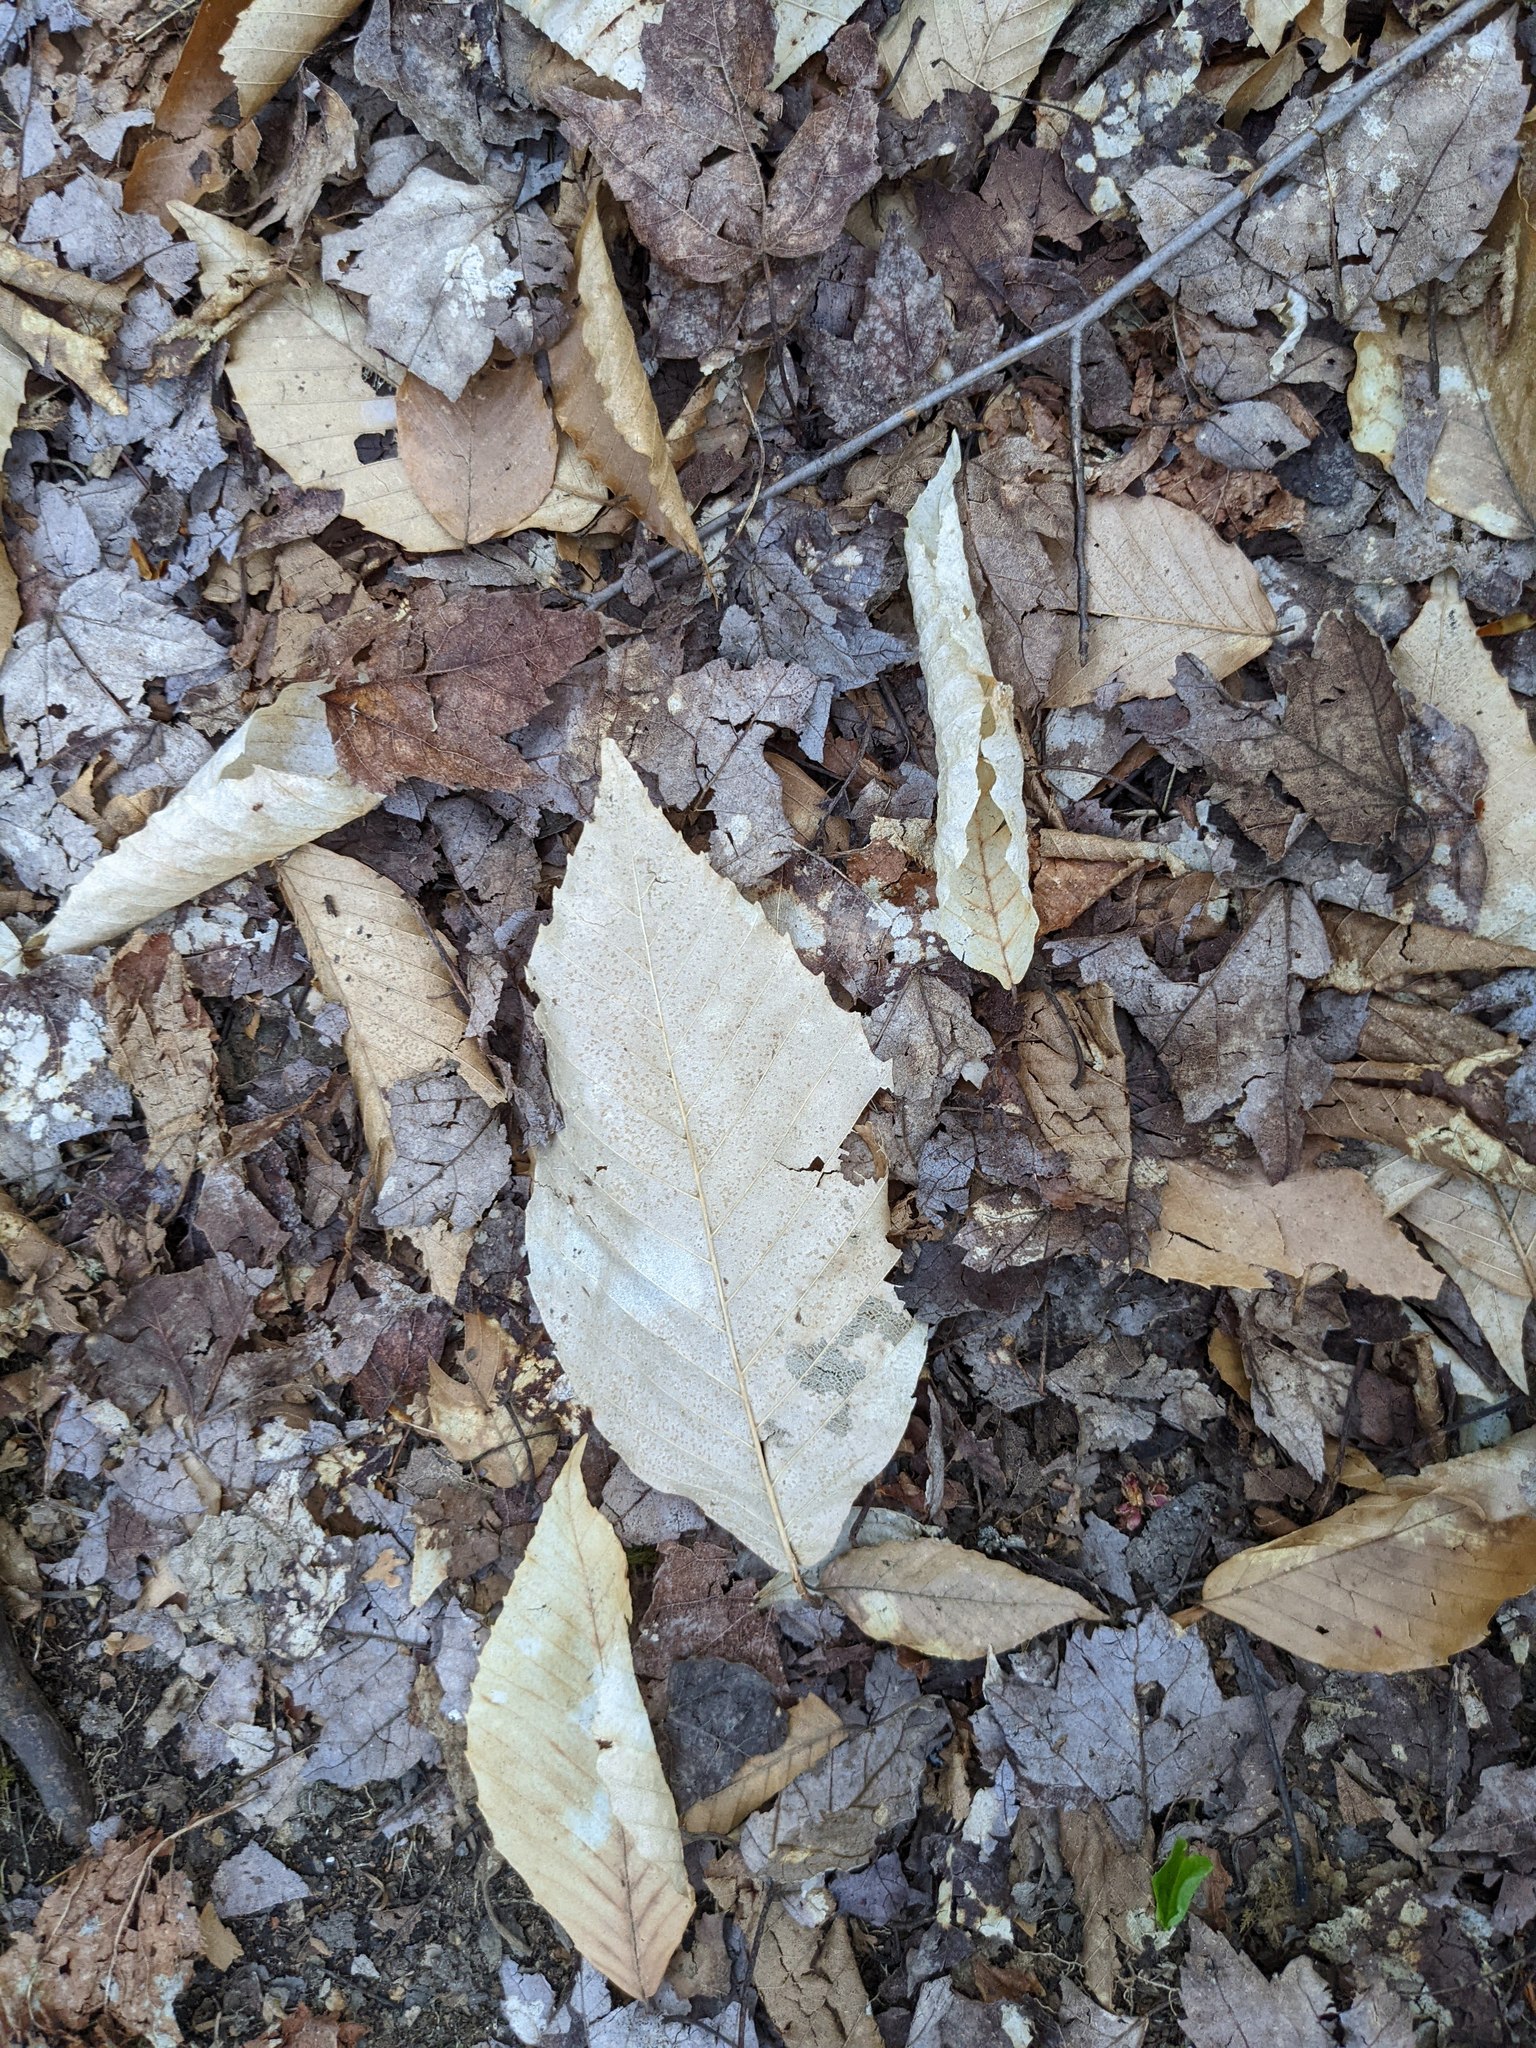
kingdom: Plantae
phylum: Tracheophyta
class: Magnoliopsida
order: Fagales
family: Fagaceae
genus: Fagus
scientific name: Fagus grandifolia
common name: American beech
